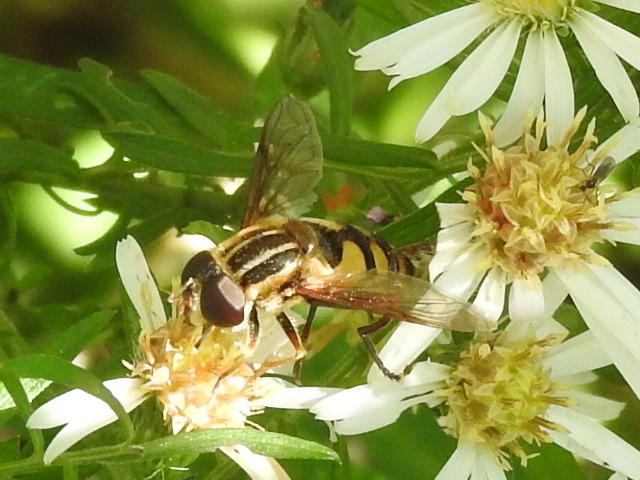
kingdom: Animalia
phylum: Arthropoda
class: Insecta
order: Diptera
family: Syrphidae
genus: Helophilus
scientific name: Helophilus fasciatus
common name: Narrow-headed marsh fly
